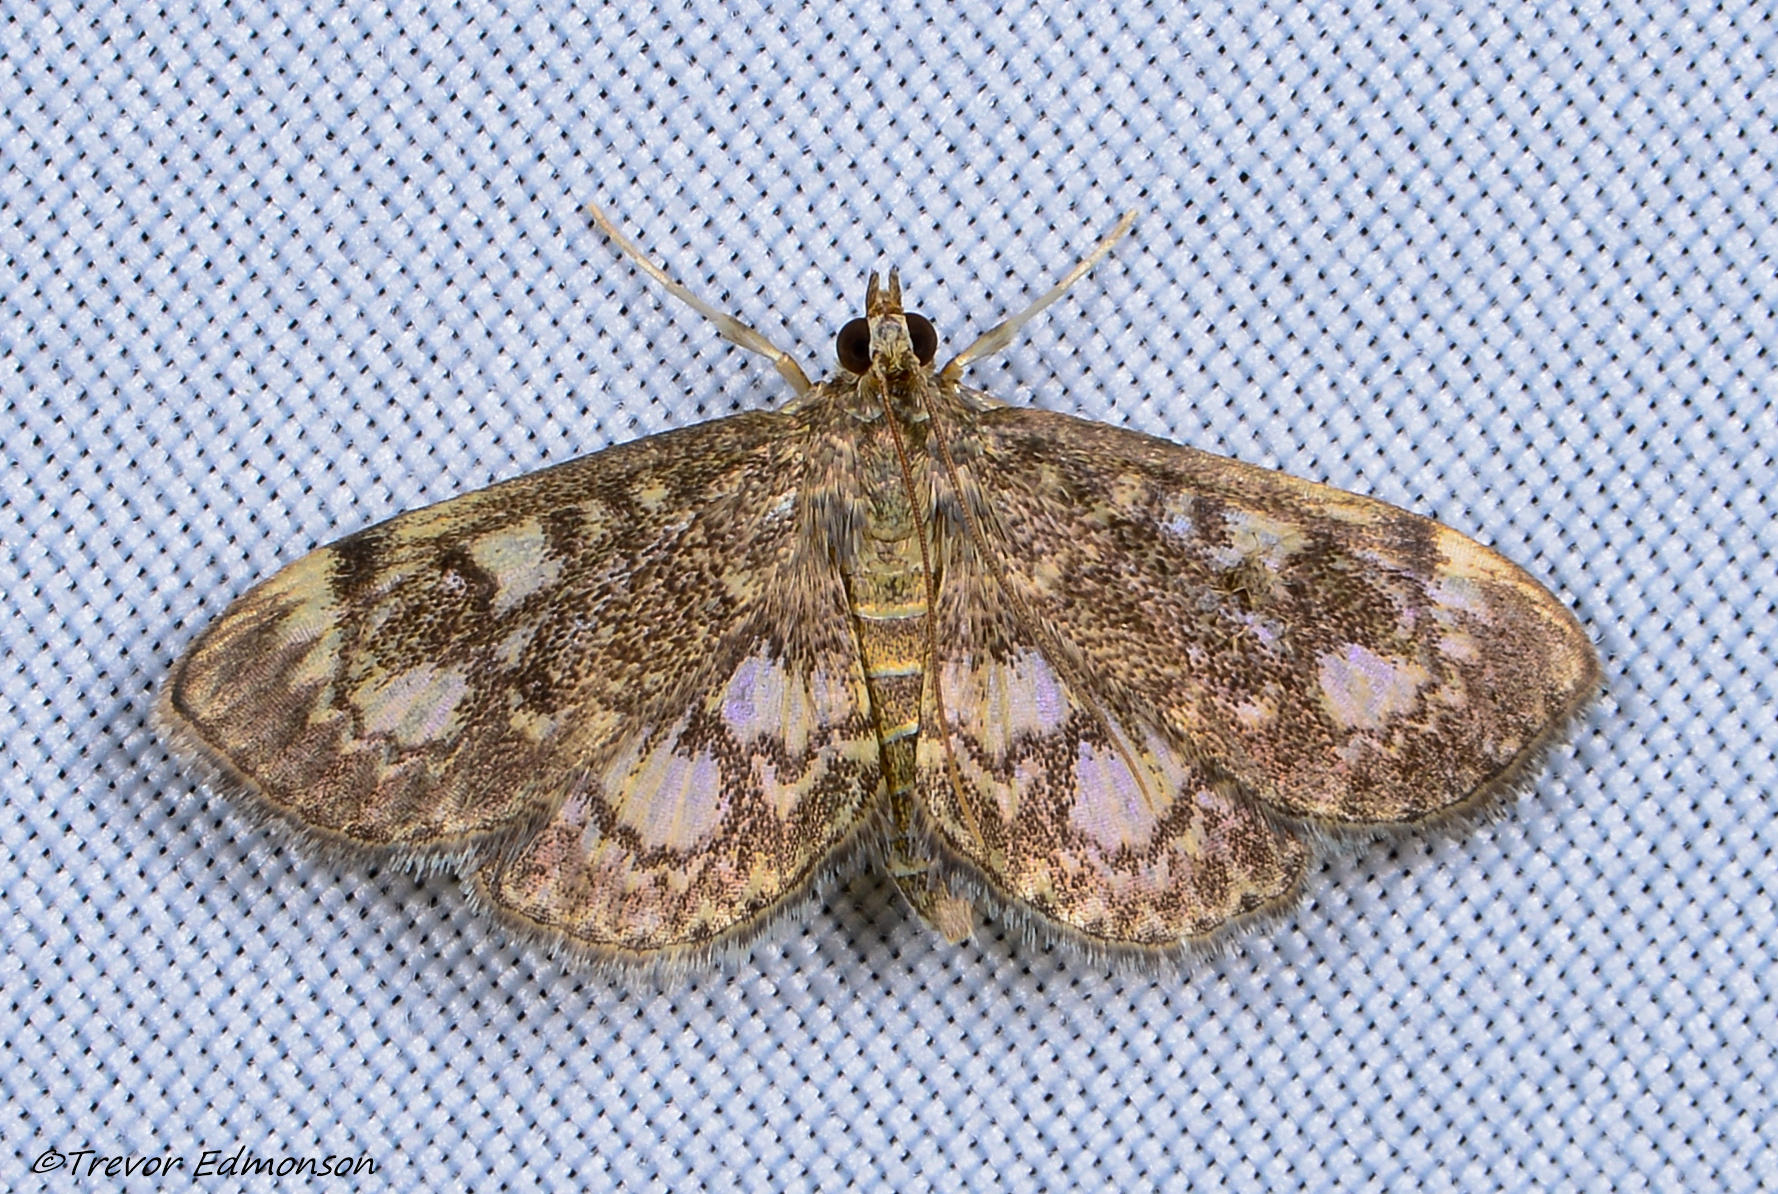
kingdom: Animalia
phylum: Arthropoda
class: Insecta
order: Lepidoptera
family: Crambidae
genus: Anania
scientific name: Anania tertialis
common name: Crowned phylctaenia moth
